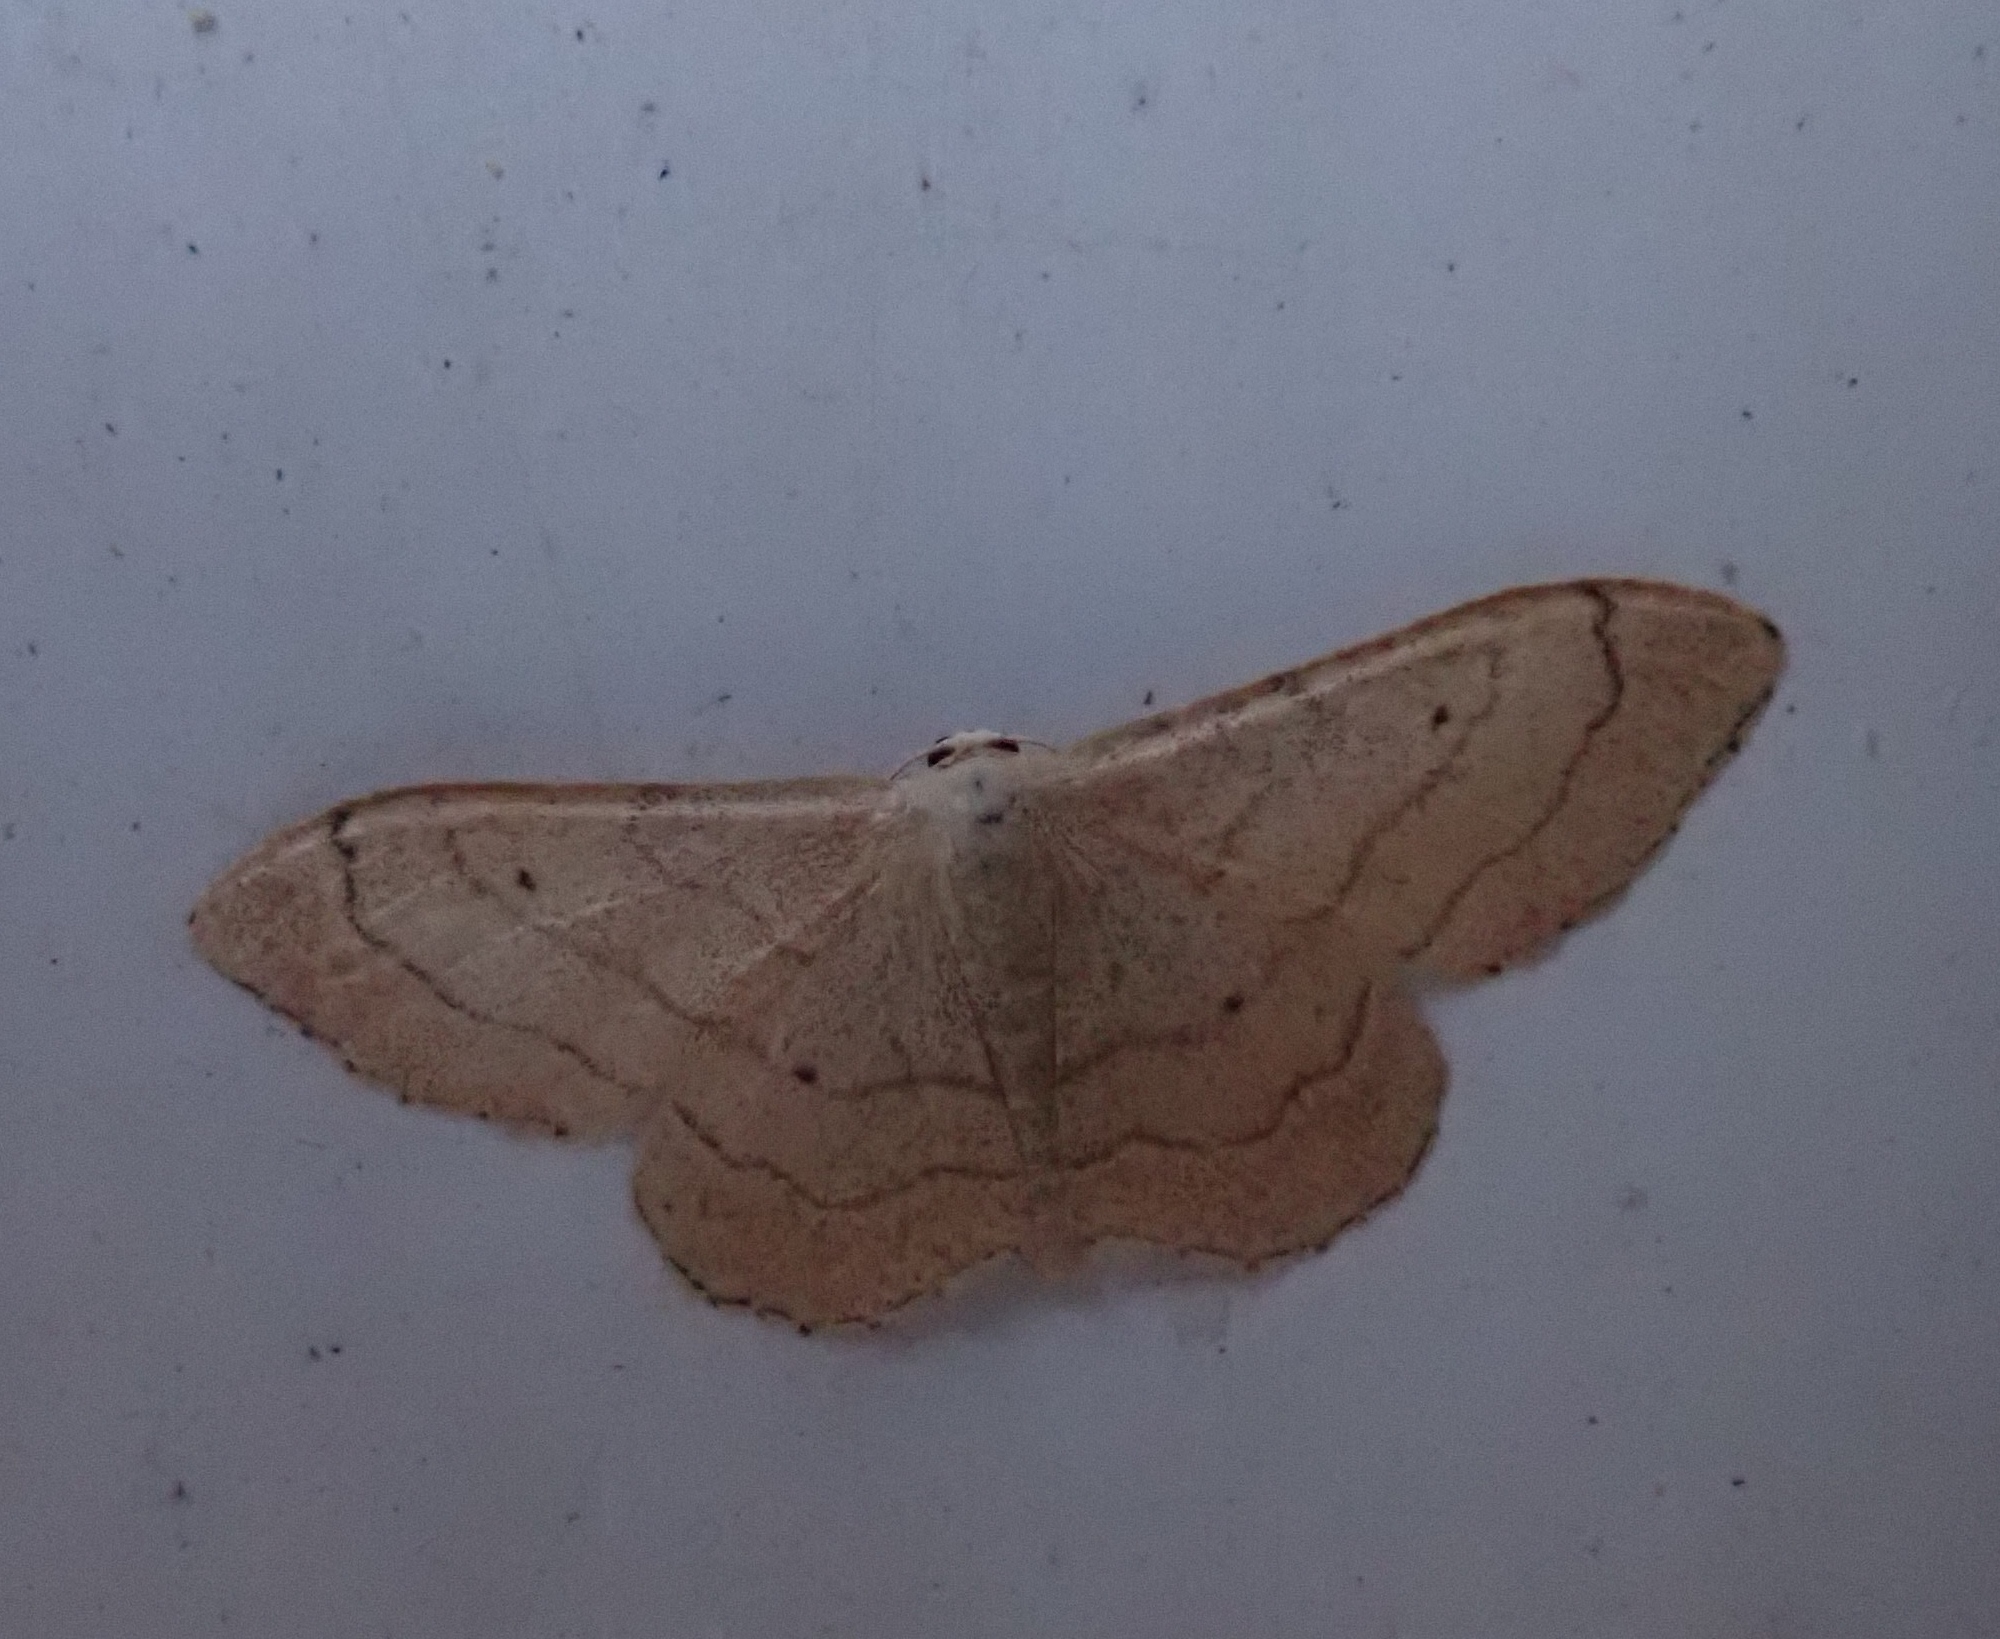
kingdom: Animalia
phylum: Arthropoda
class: Insecta
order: Lepidoptera
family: Geometridae
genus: Idaea
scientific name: Idaea aversata
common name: Riband wave
